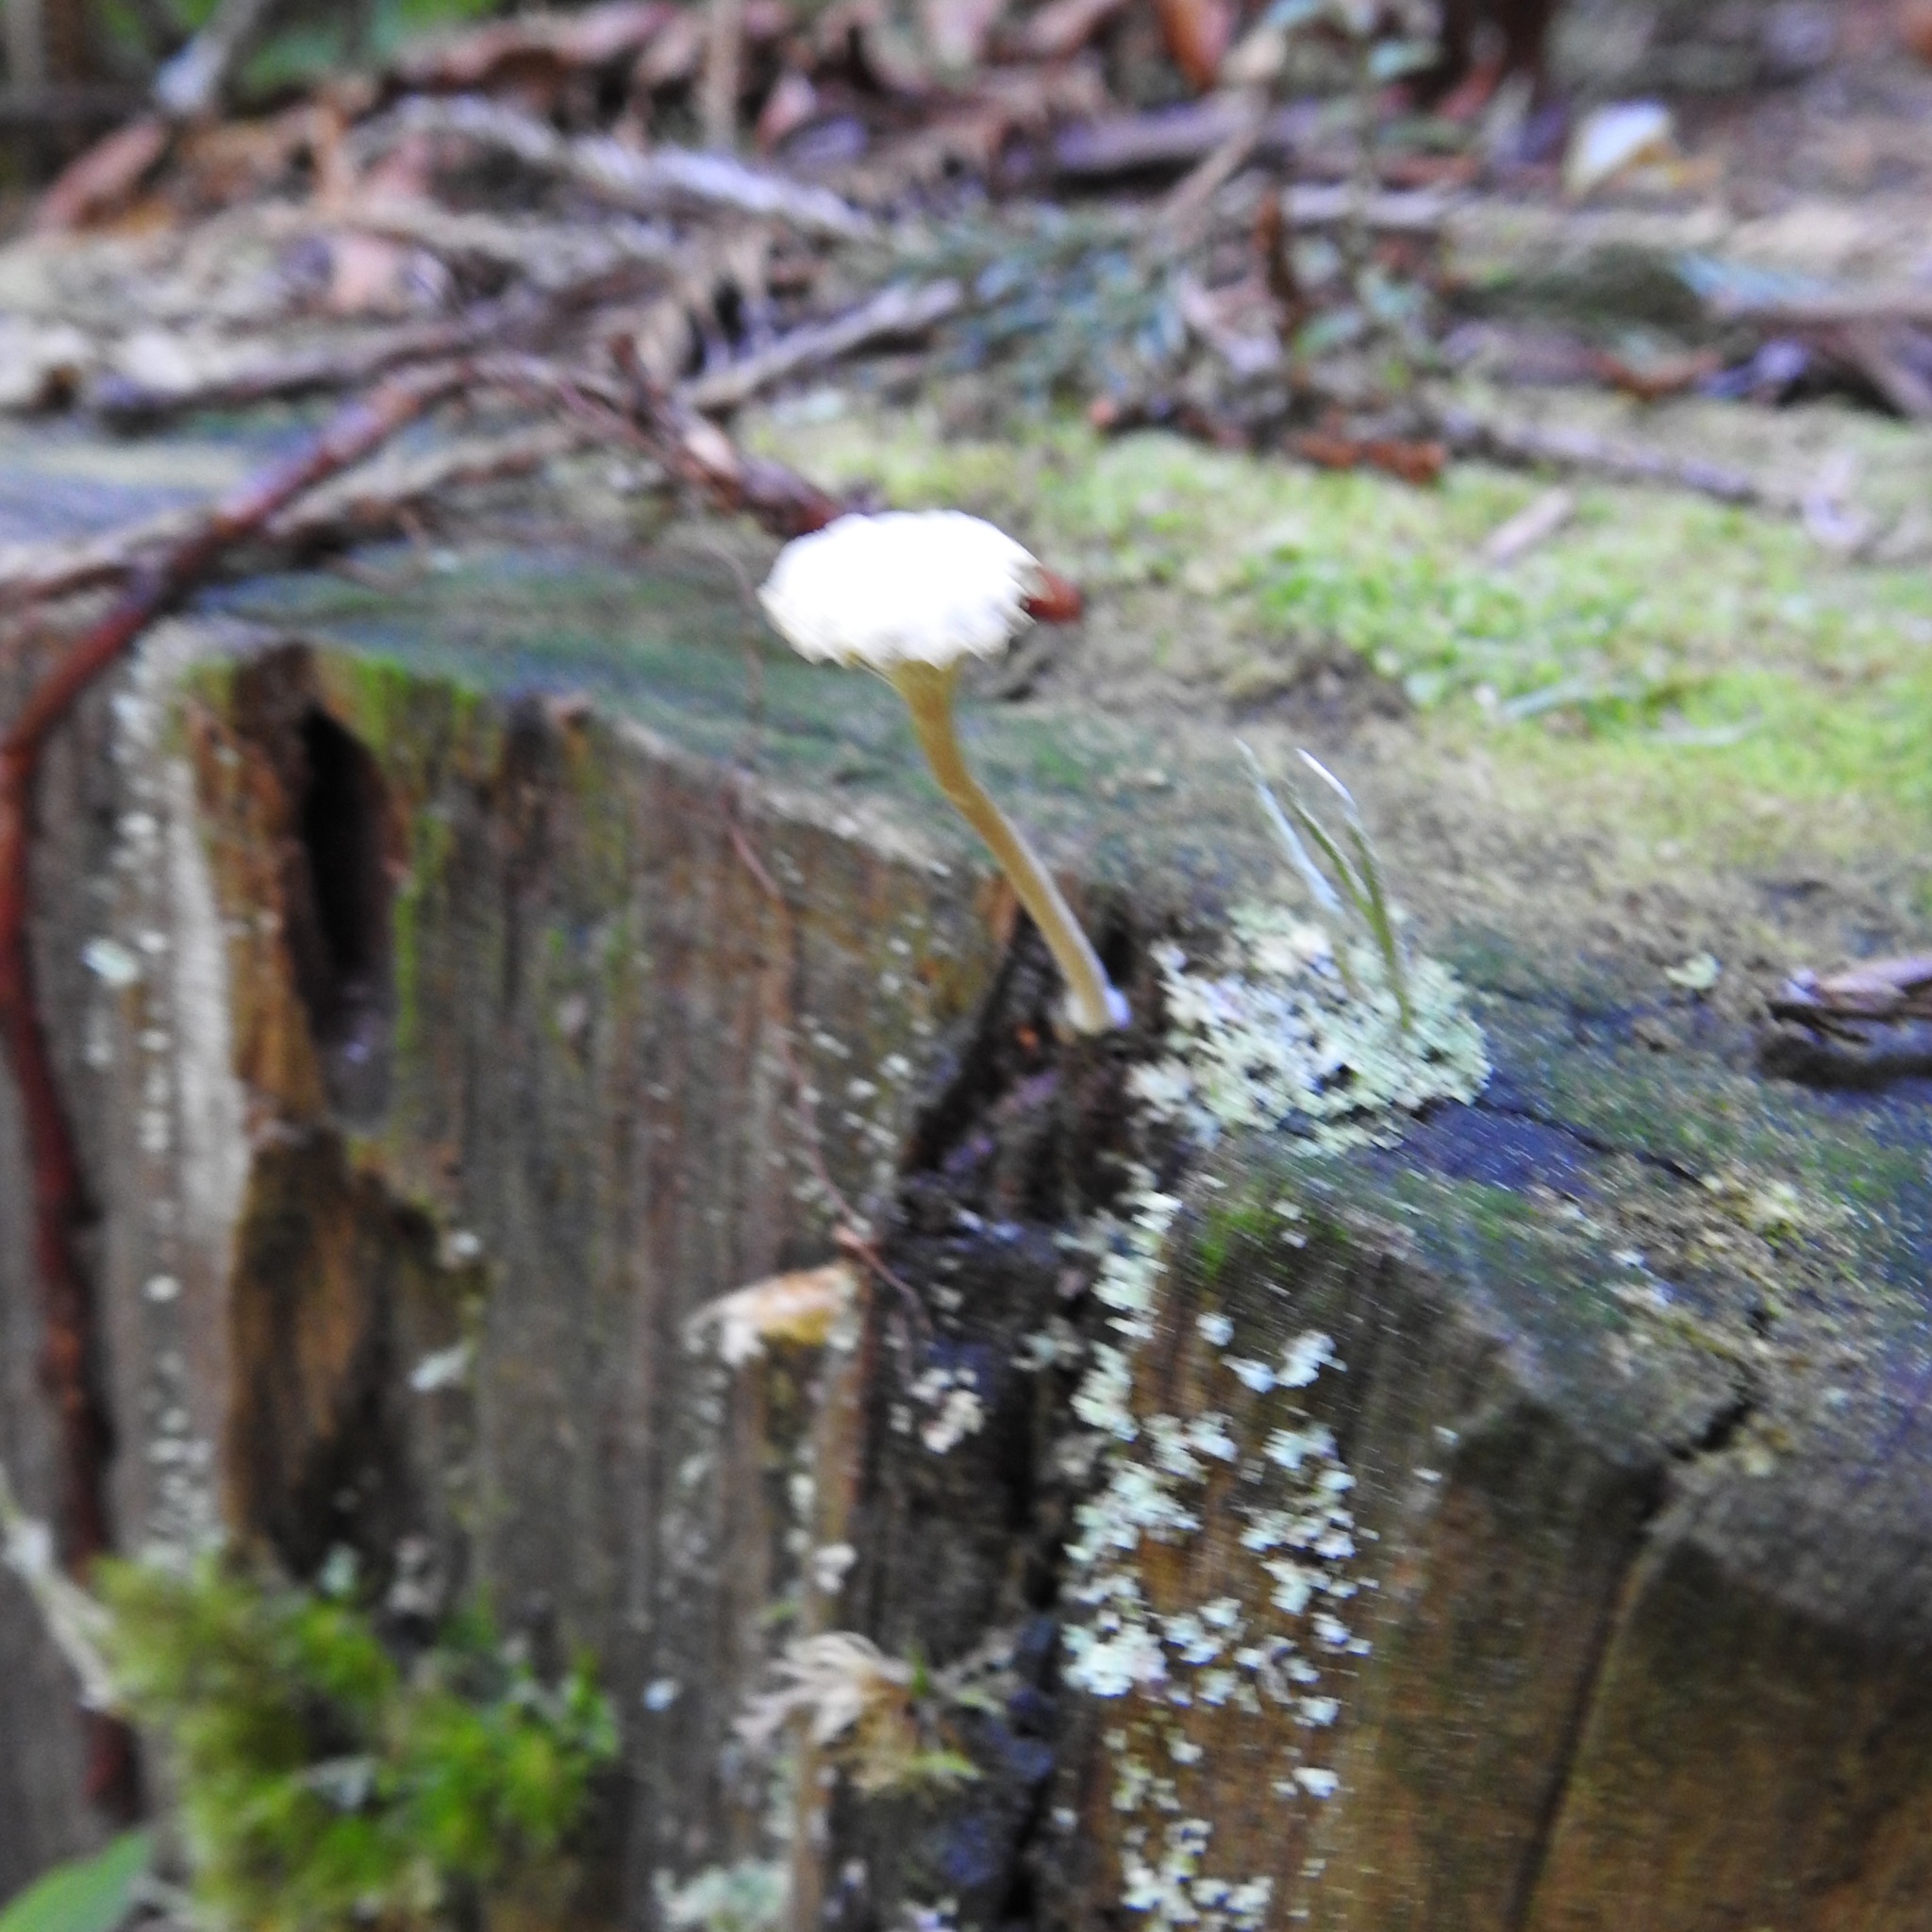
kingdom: Fungi
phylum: Basidiomycota
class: Agaricomycetes
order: Agaricales
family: Hygrophoraceae
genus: Lichenomphalia
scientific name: Lichenomphalia
